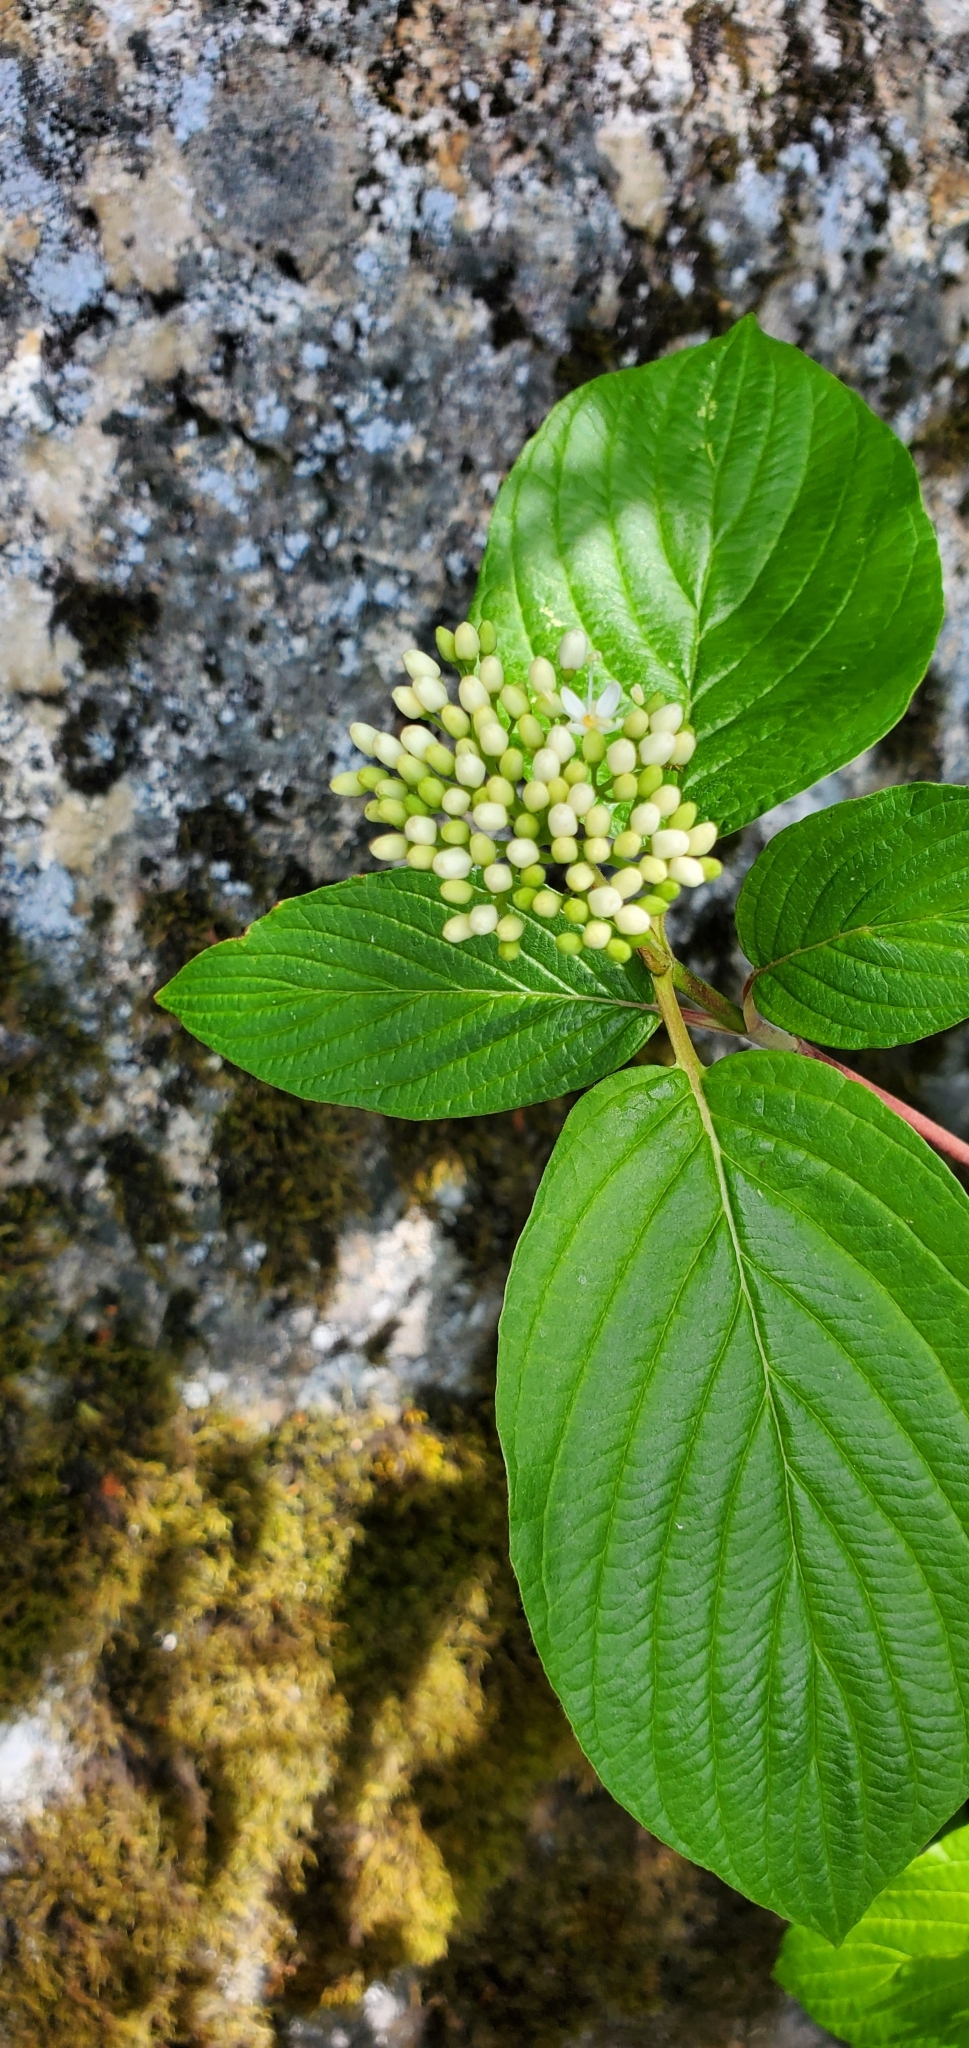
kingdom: Plantae
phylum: Tracheophyta
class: Magnoliopsida
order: Cornales
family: Cornaceae
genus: Cornus
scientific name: Cornus sericea
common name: Red-osier dogwood
